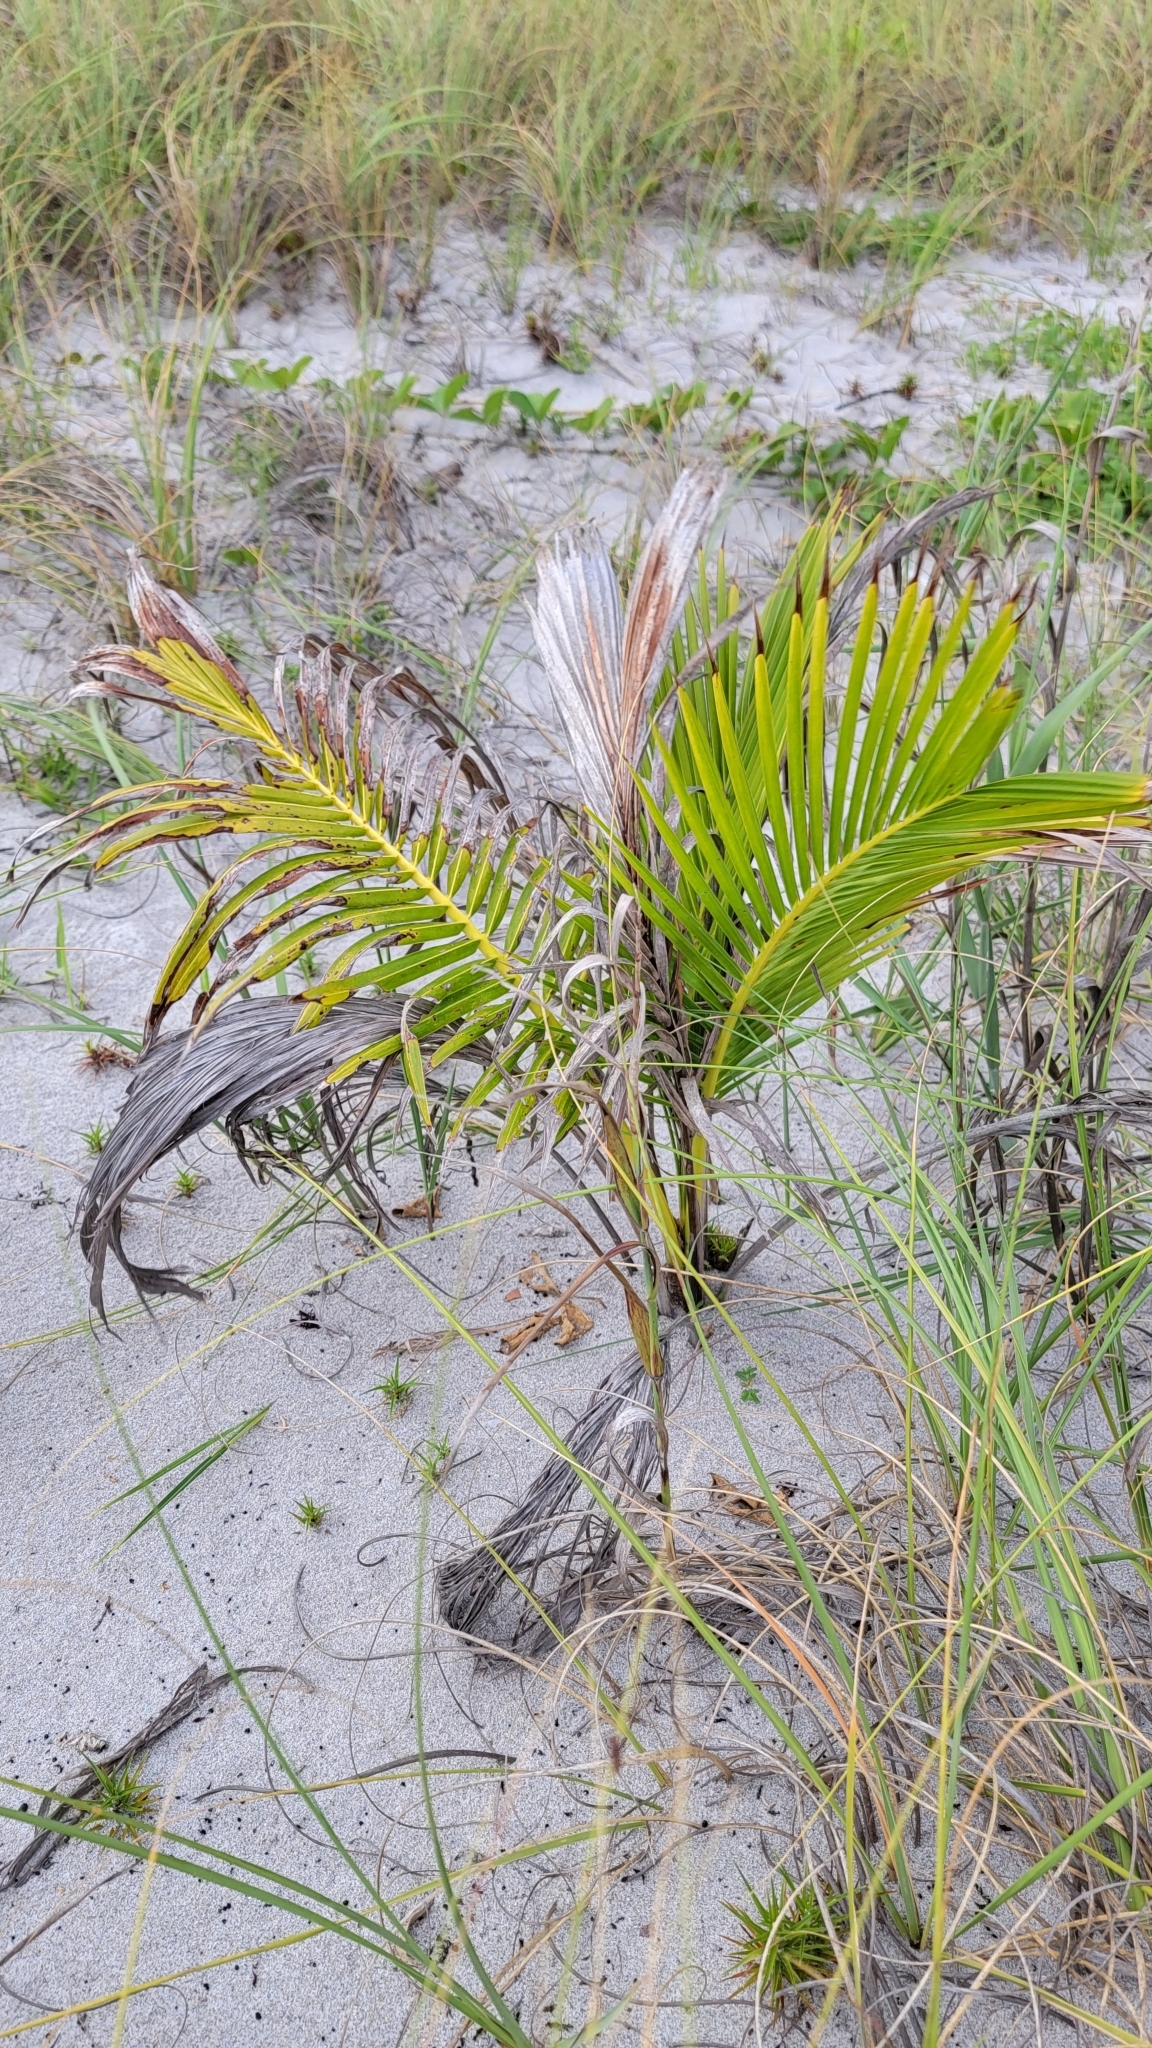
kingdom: Plantae
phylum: Tracheophyta
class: Liliopsida
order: Arecales
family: Arecaceae
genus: Cocos
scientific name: Cocos nucifera
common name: Coconut palm
